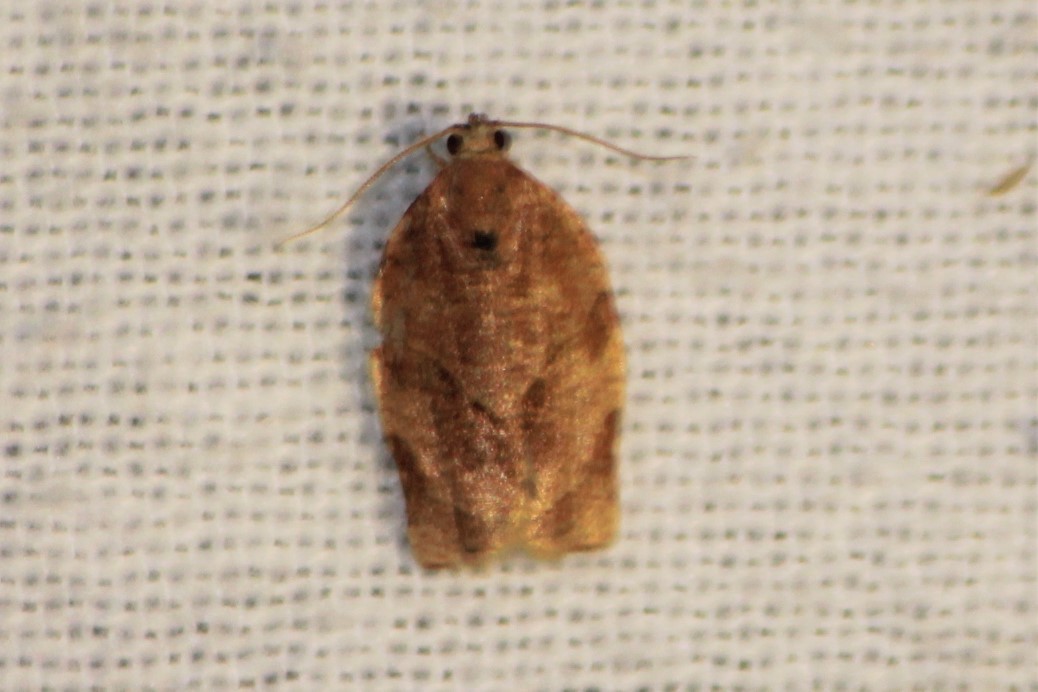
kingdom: Animalia
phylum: Arthropoda
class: Insecta
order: Lepidoptera
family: Tortricidae
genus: Choristoneura
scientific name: Choristoneura rosaceana
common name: Oblique-banded leafroller moth
